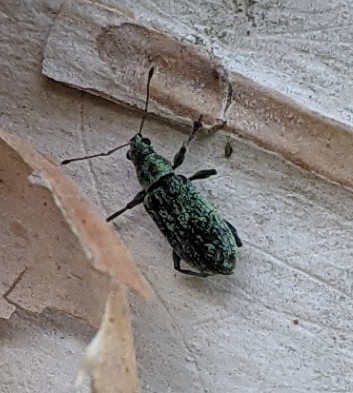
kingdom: Animalia
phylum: Arthropoda
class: Insecta
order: Coleoptera
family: Curculionidae
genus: Polydrusus
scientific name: Polydrusus cervinus
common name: Weevil
